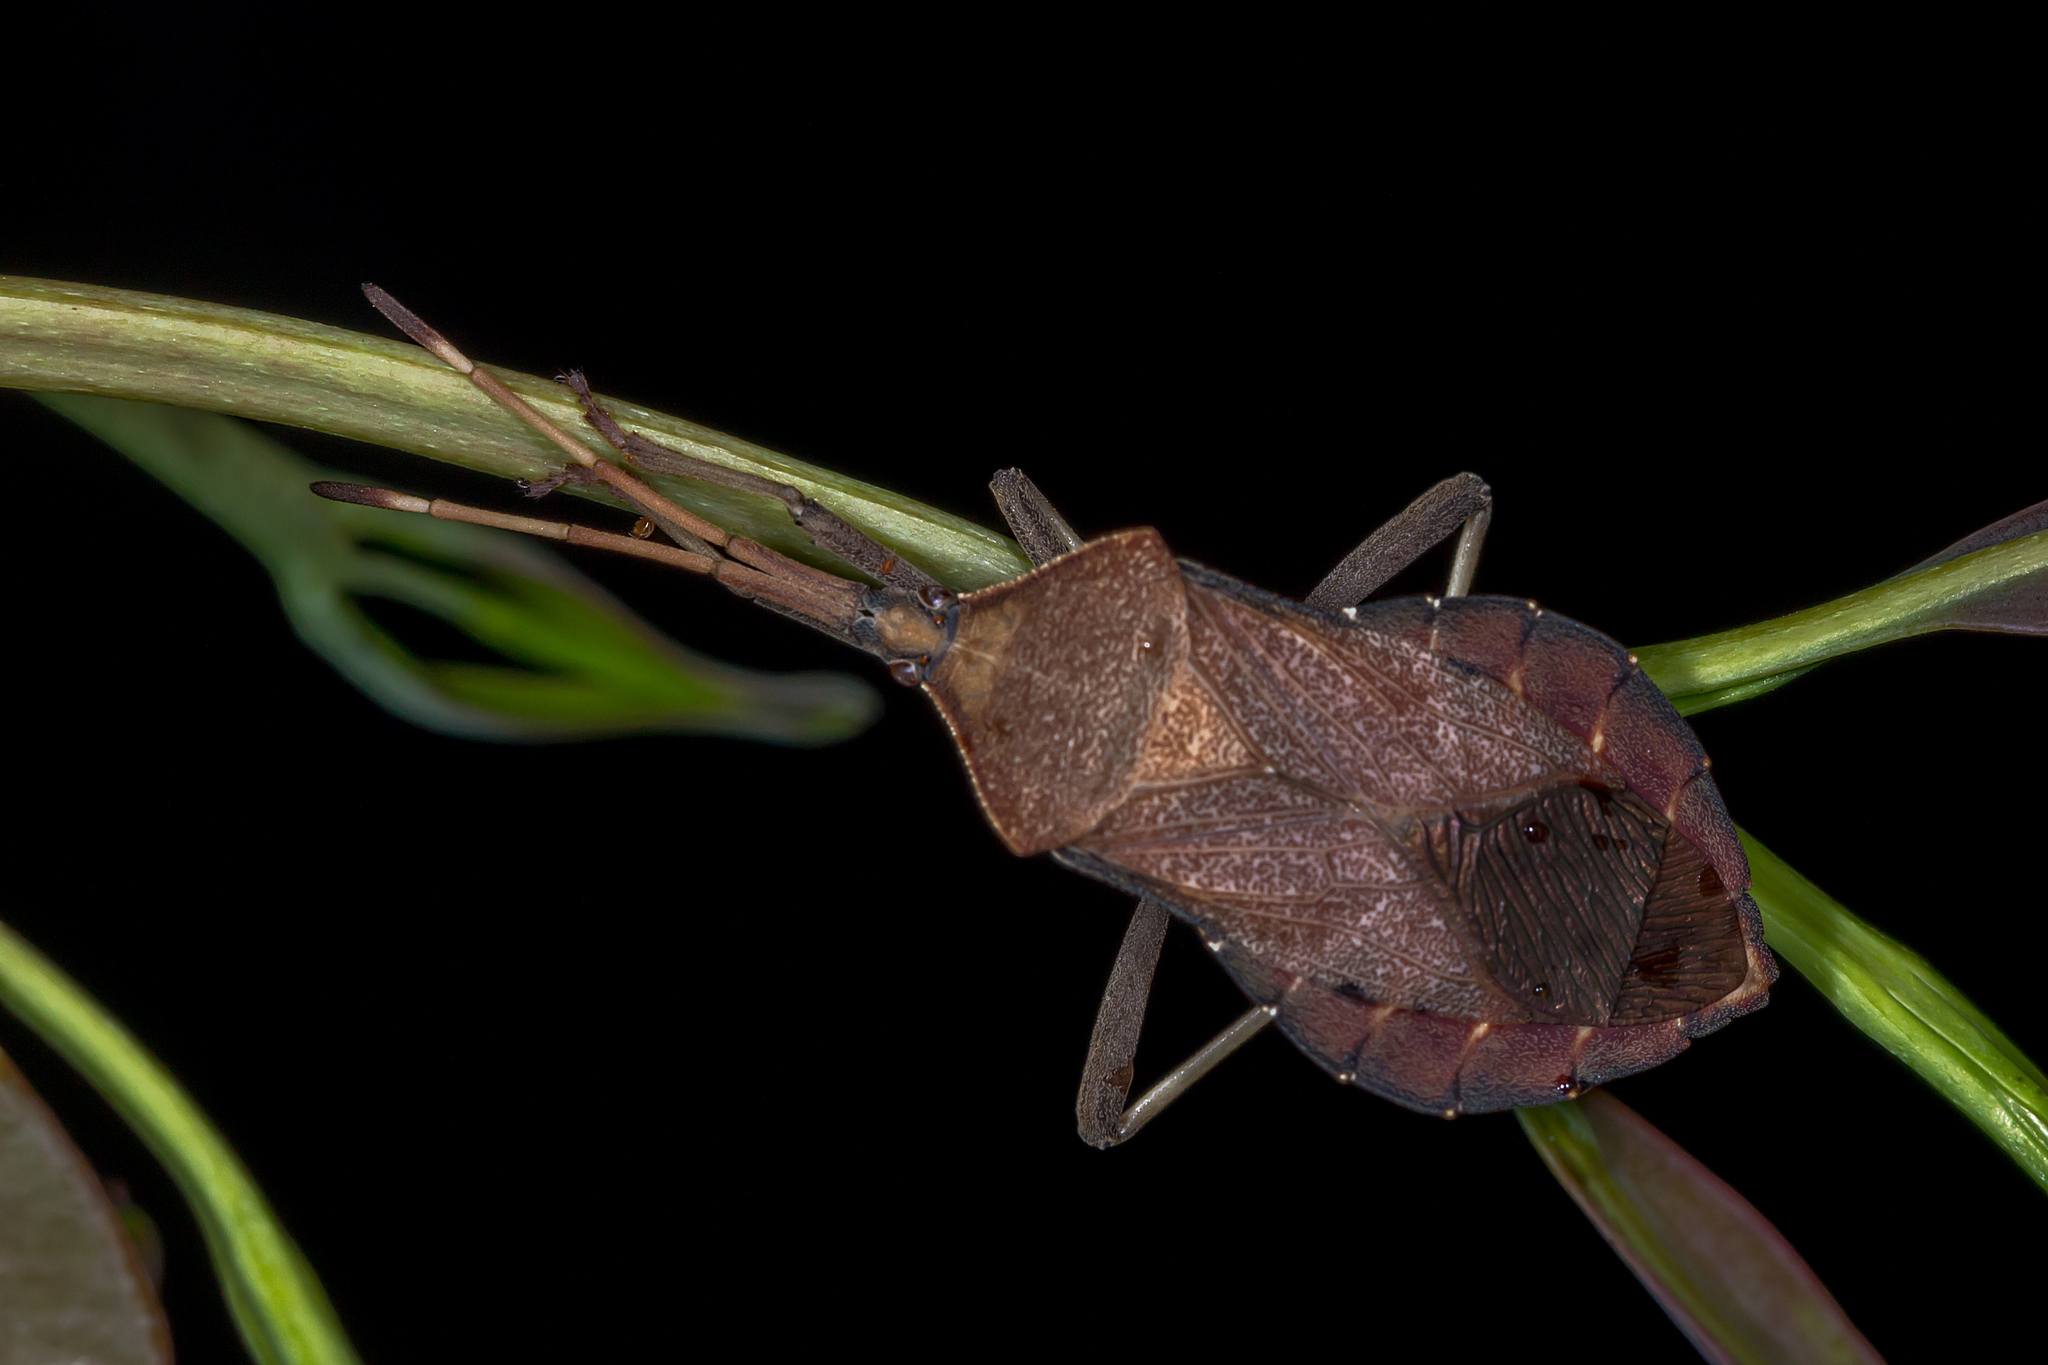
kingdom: Animalia
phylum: Arthropoda
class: Insecta
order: Hemiptera
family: Coreidae
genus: Amorbus
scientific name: Amorbus rhombifer
